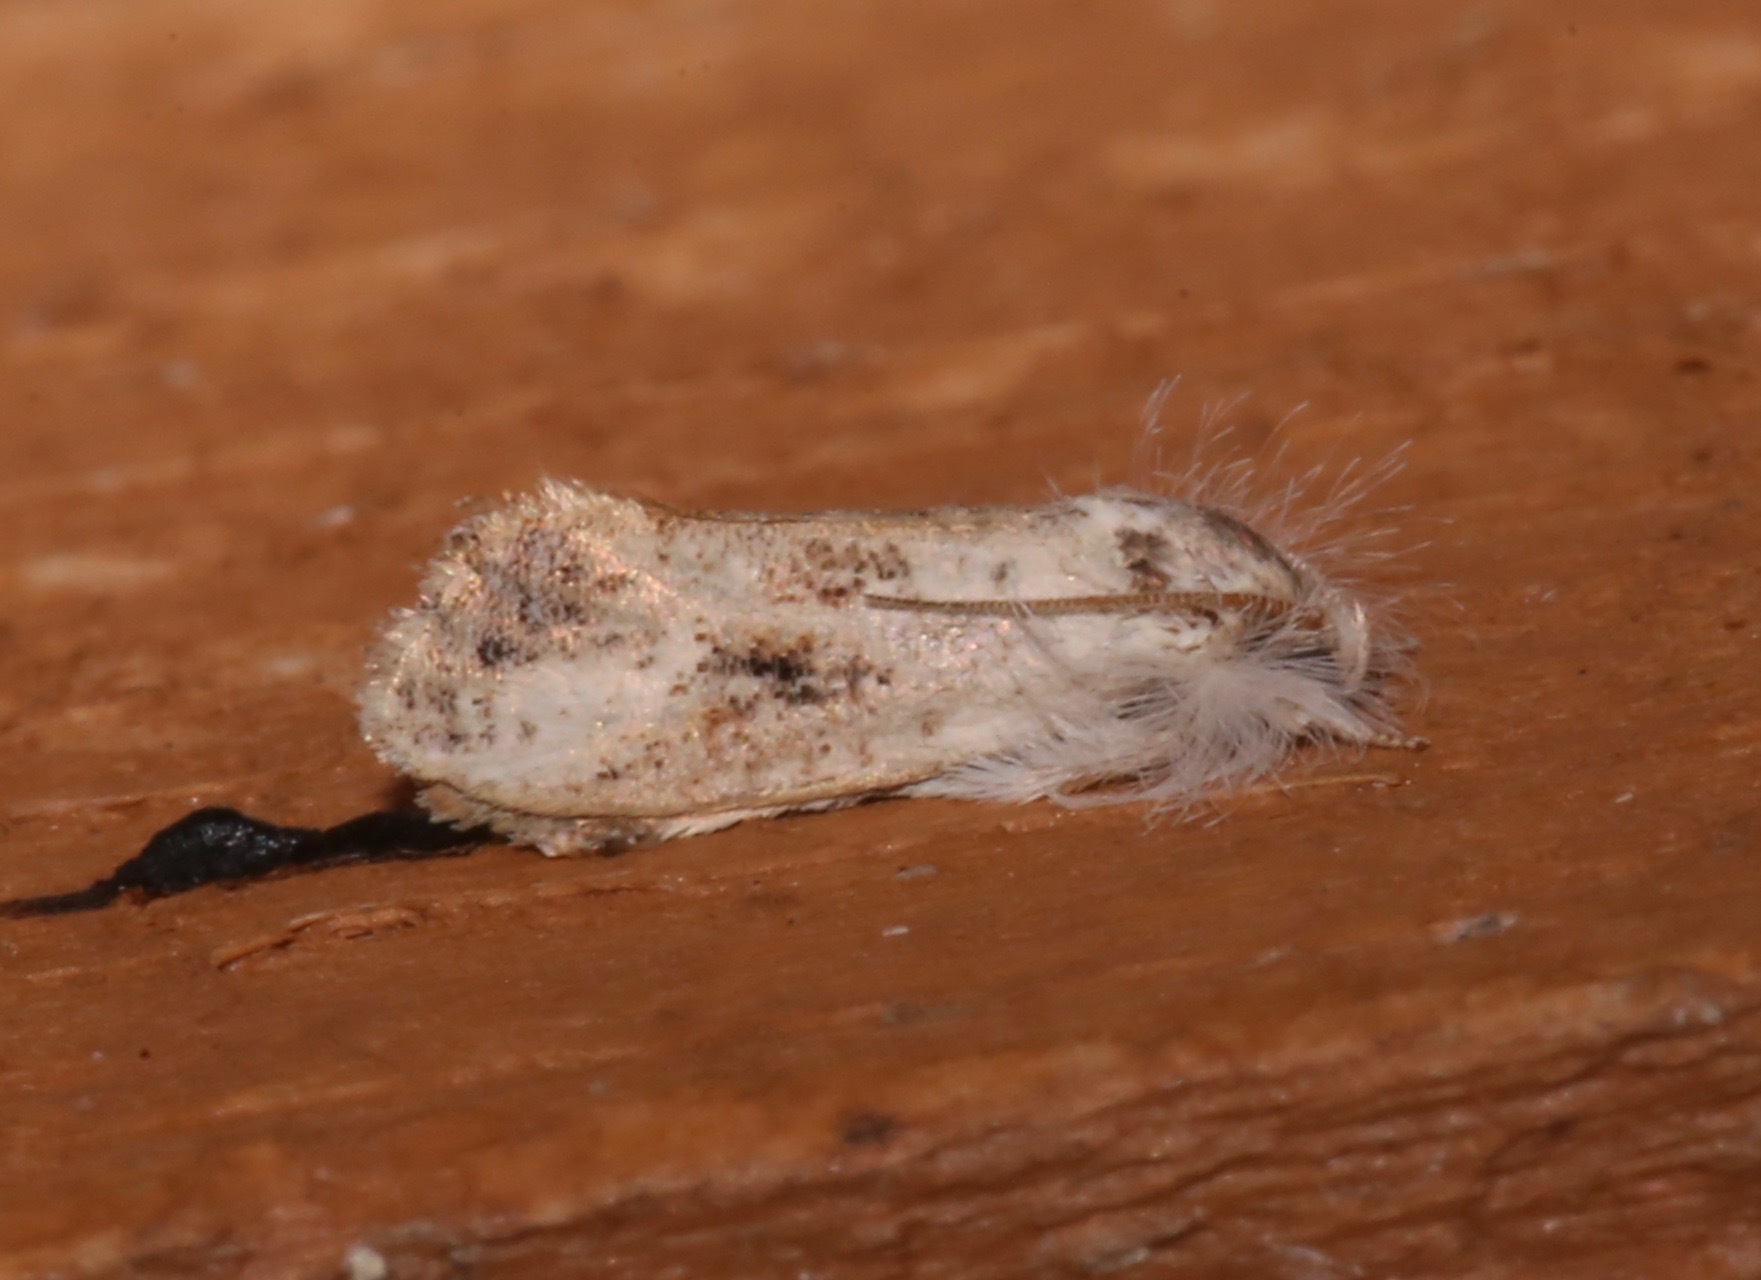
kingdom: Animalia
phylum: Arthropoda
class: Insecta
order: Lepidoptera
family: Tineidae
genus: Acrolophus
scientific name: Acrolophus mycetophagus
